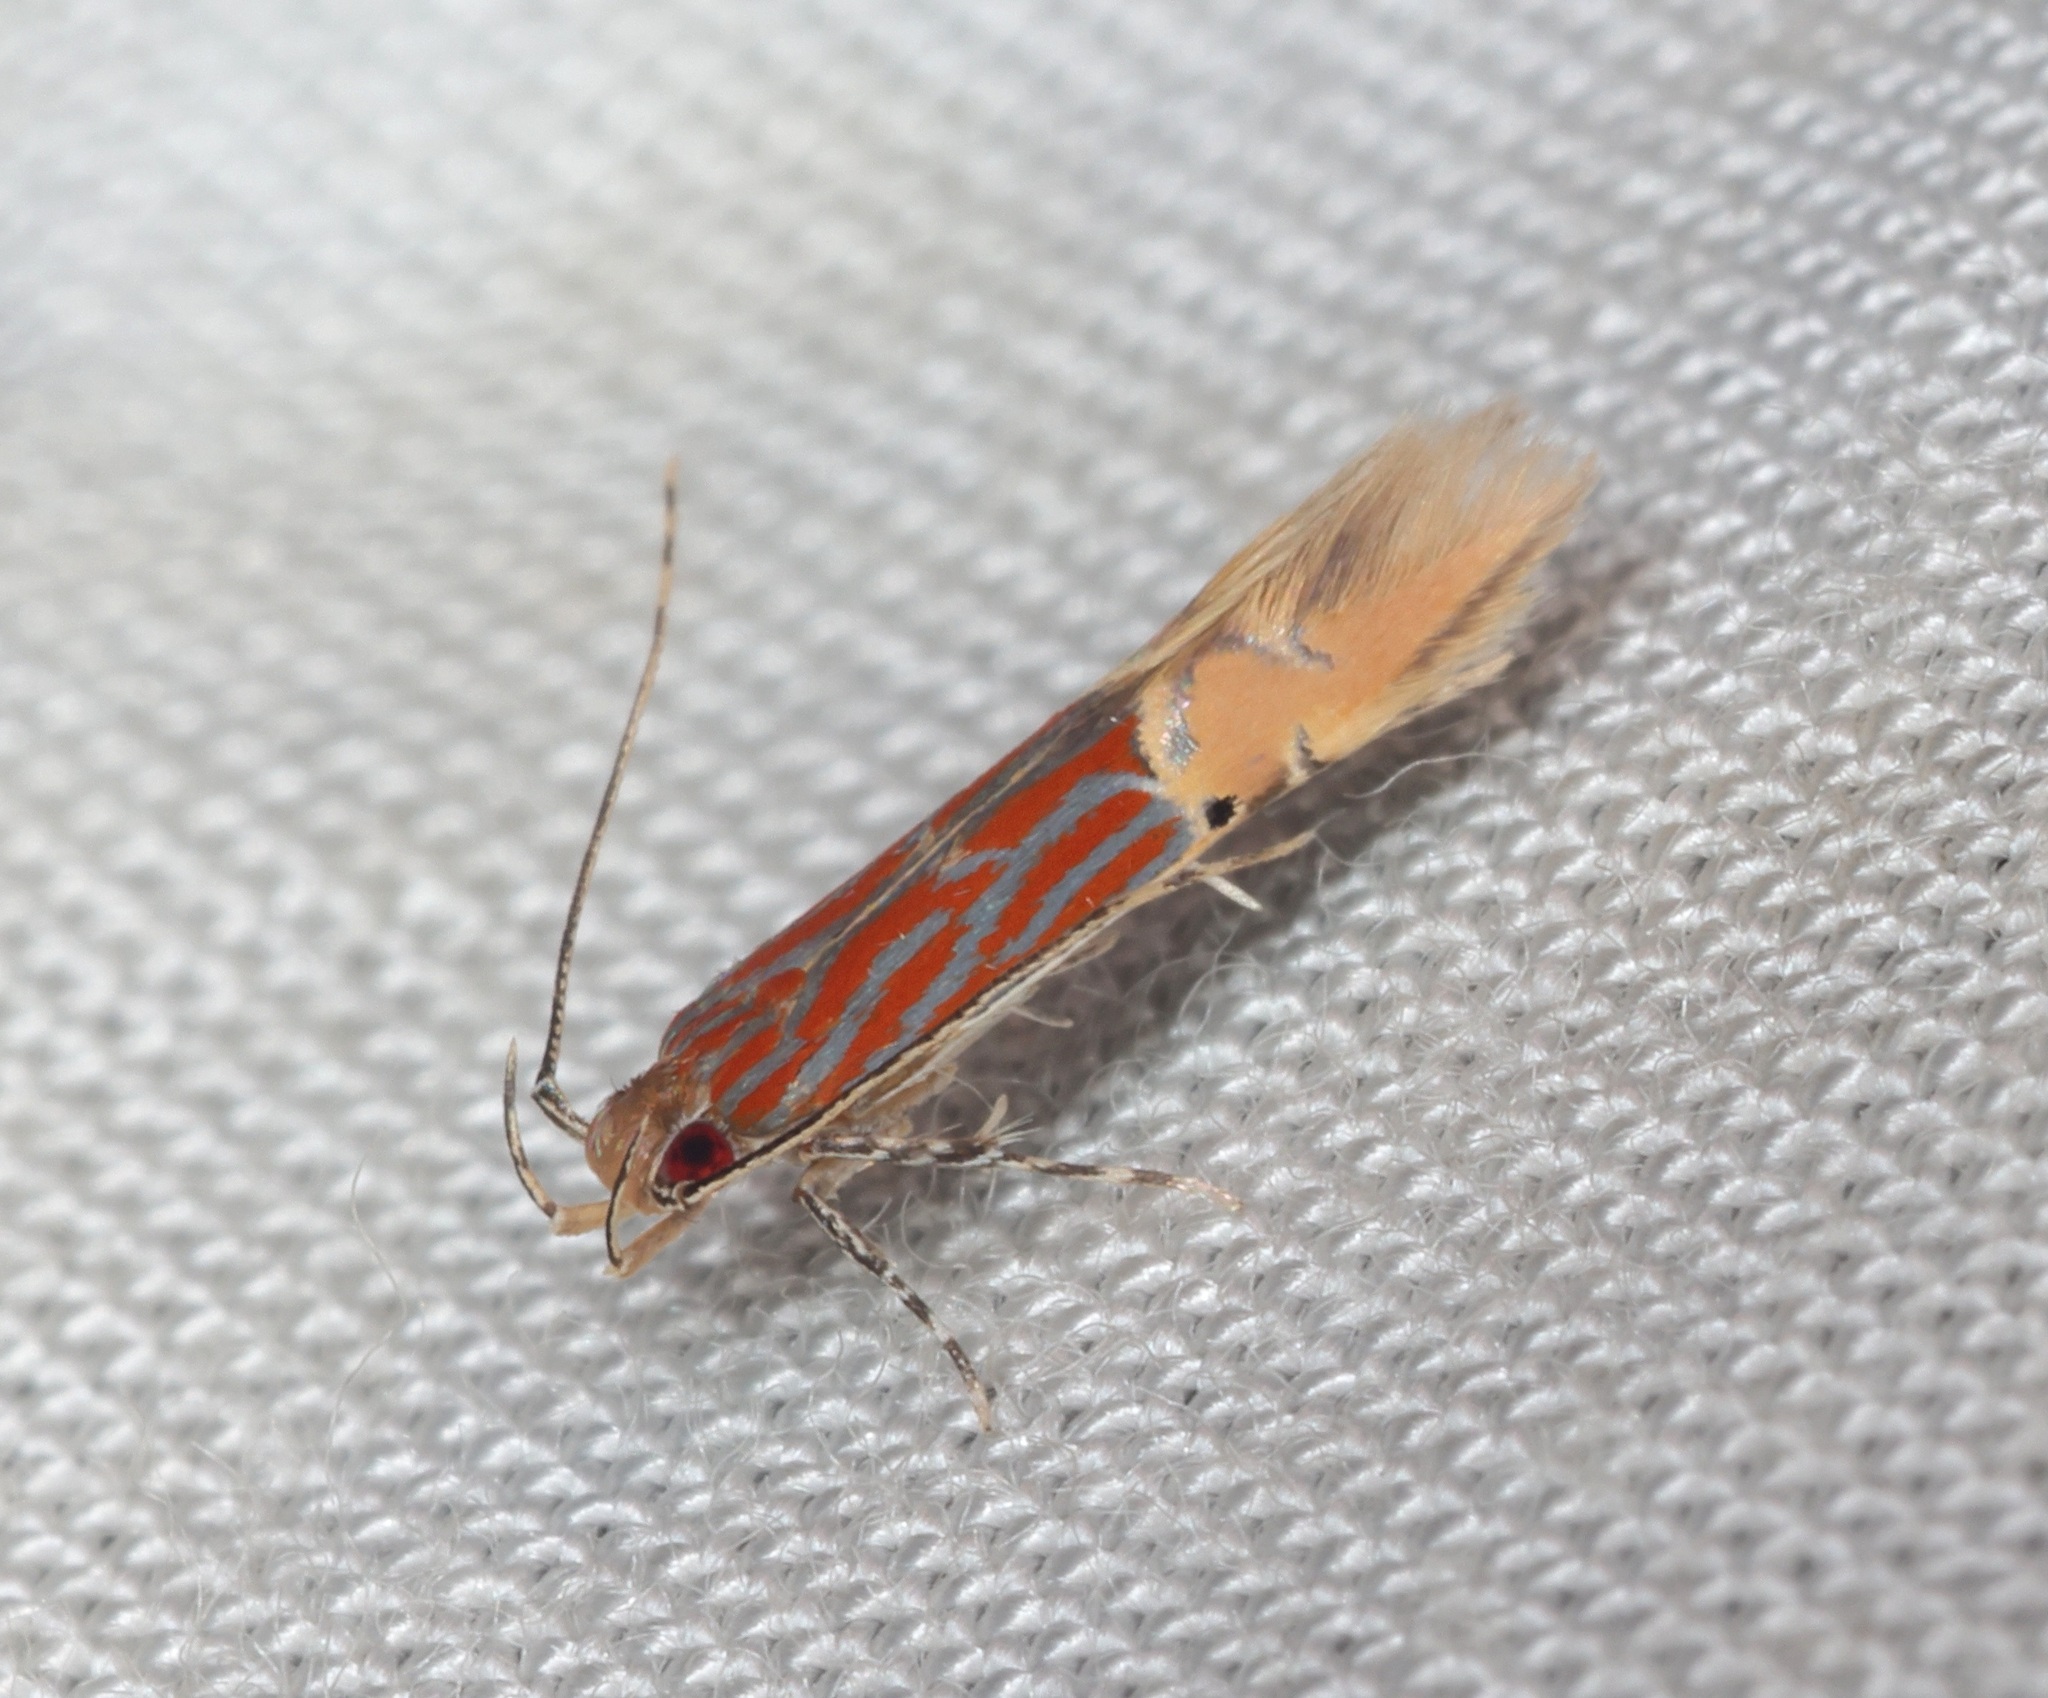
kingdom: Animalia
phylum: Arthropoda
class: Insecta
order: Lepidoptera
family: Cosmopterigidae
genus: Labdia
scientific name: Labdia semicoccinea
